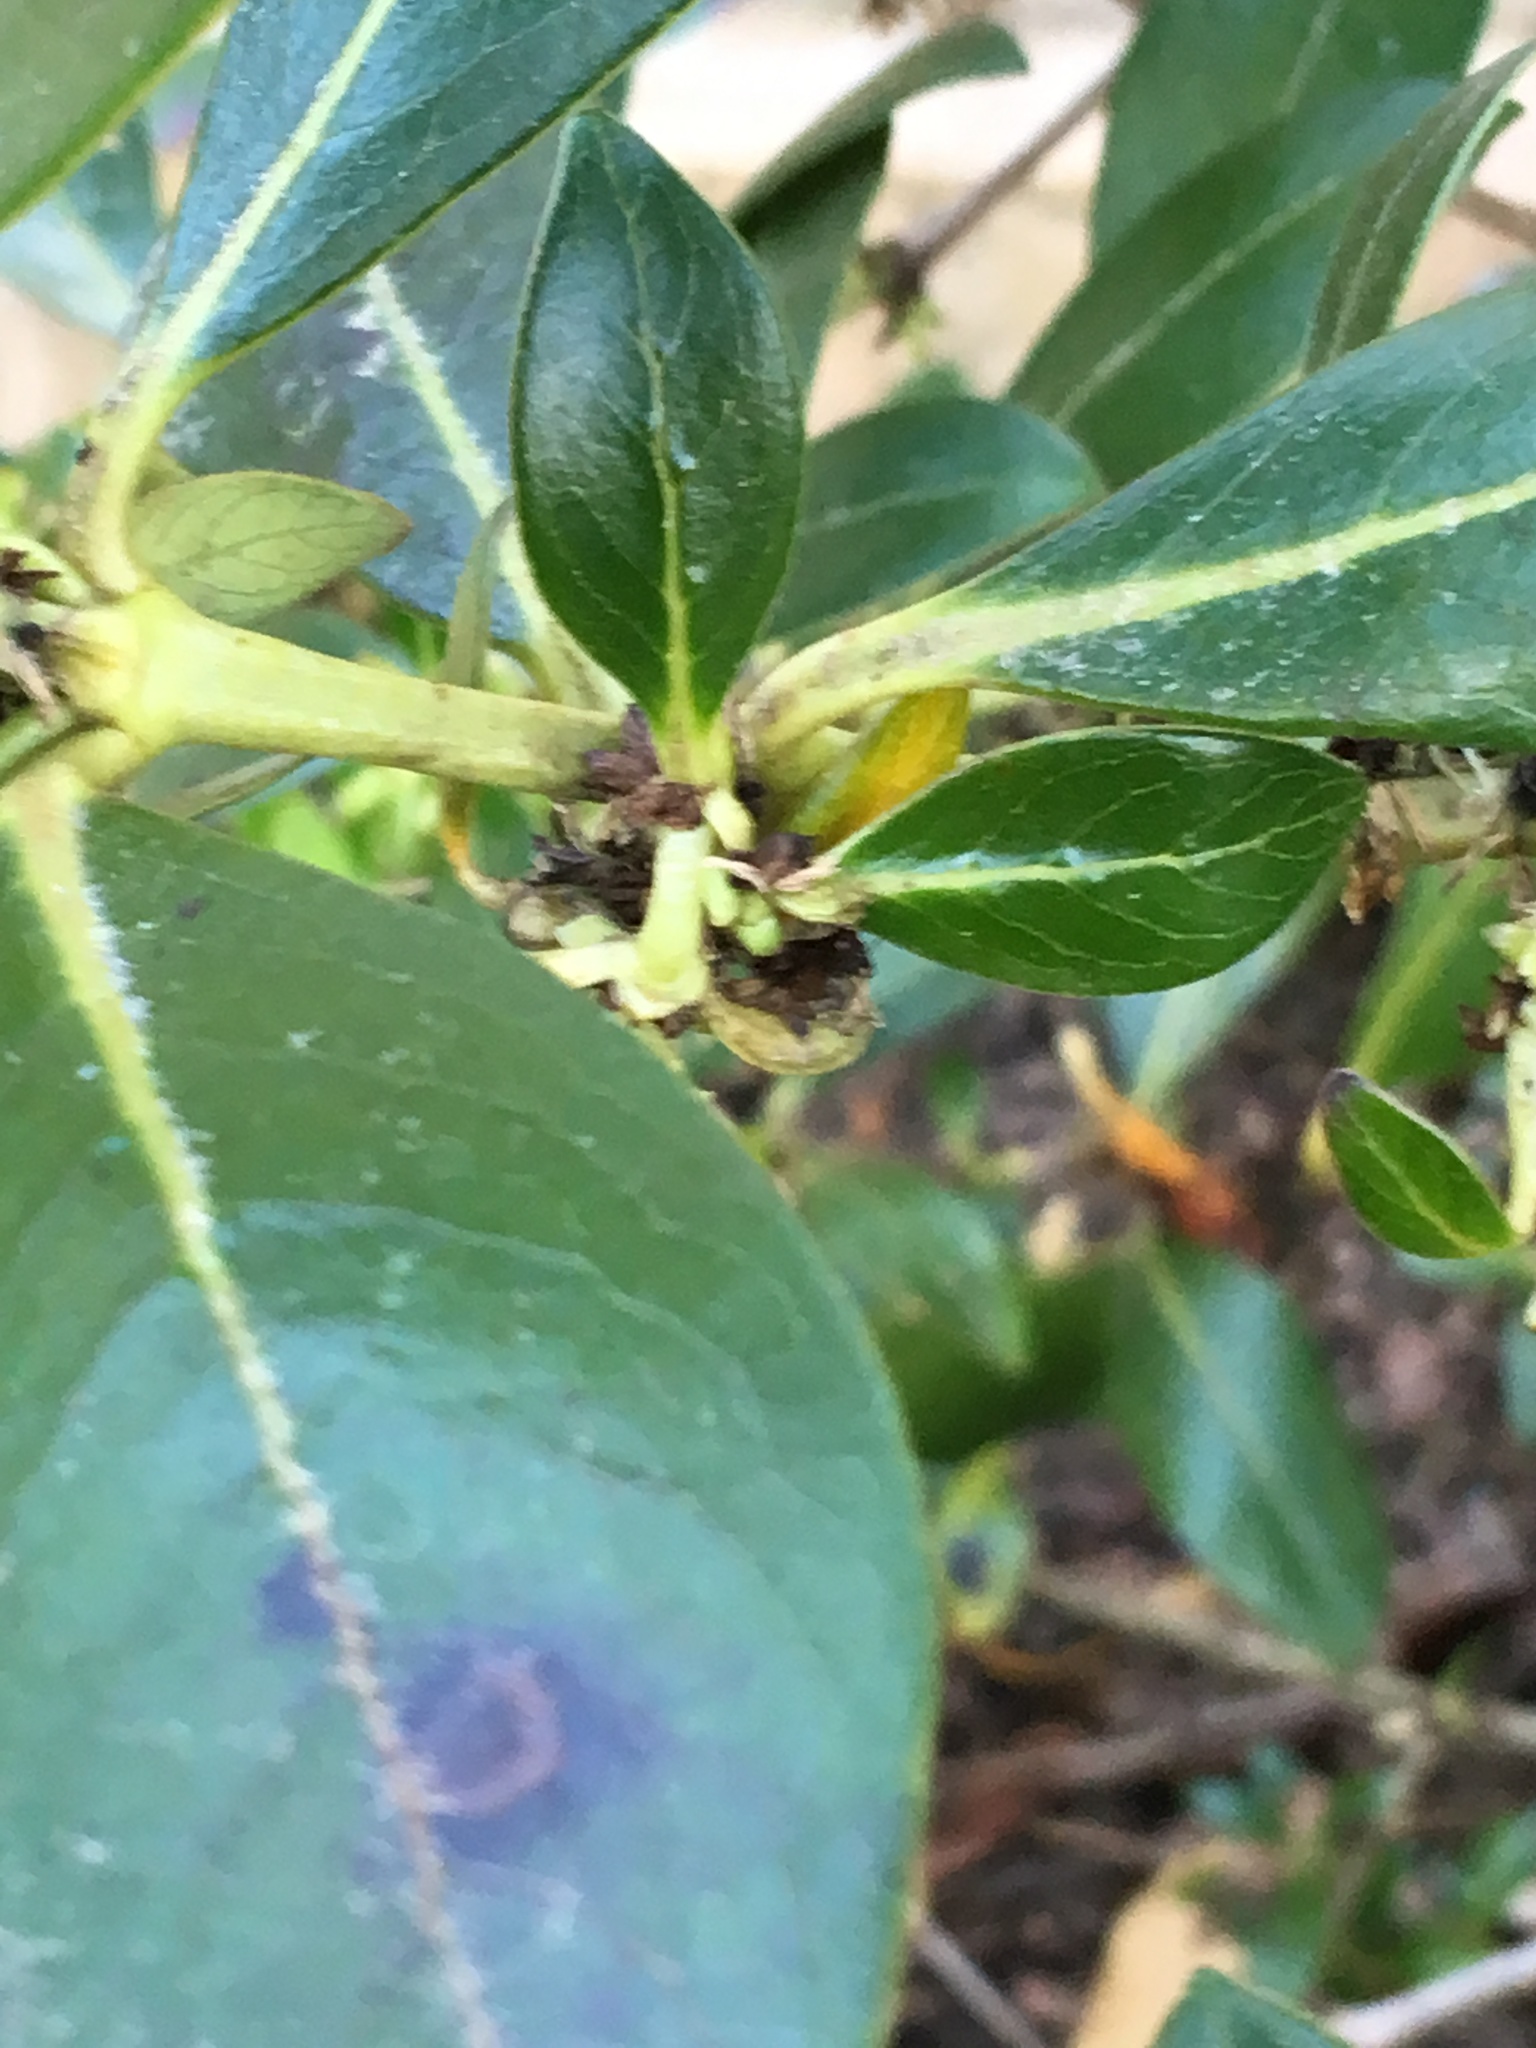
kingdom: Plantae
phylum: Tracheophyta
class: Magnoliopsida
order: Gentianales
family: Rubiaceae
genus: Coprosma
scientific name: Coprosma robusta
